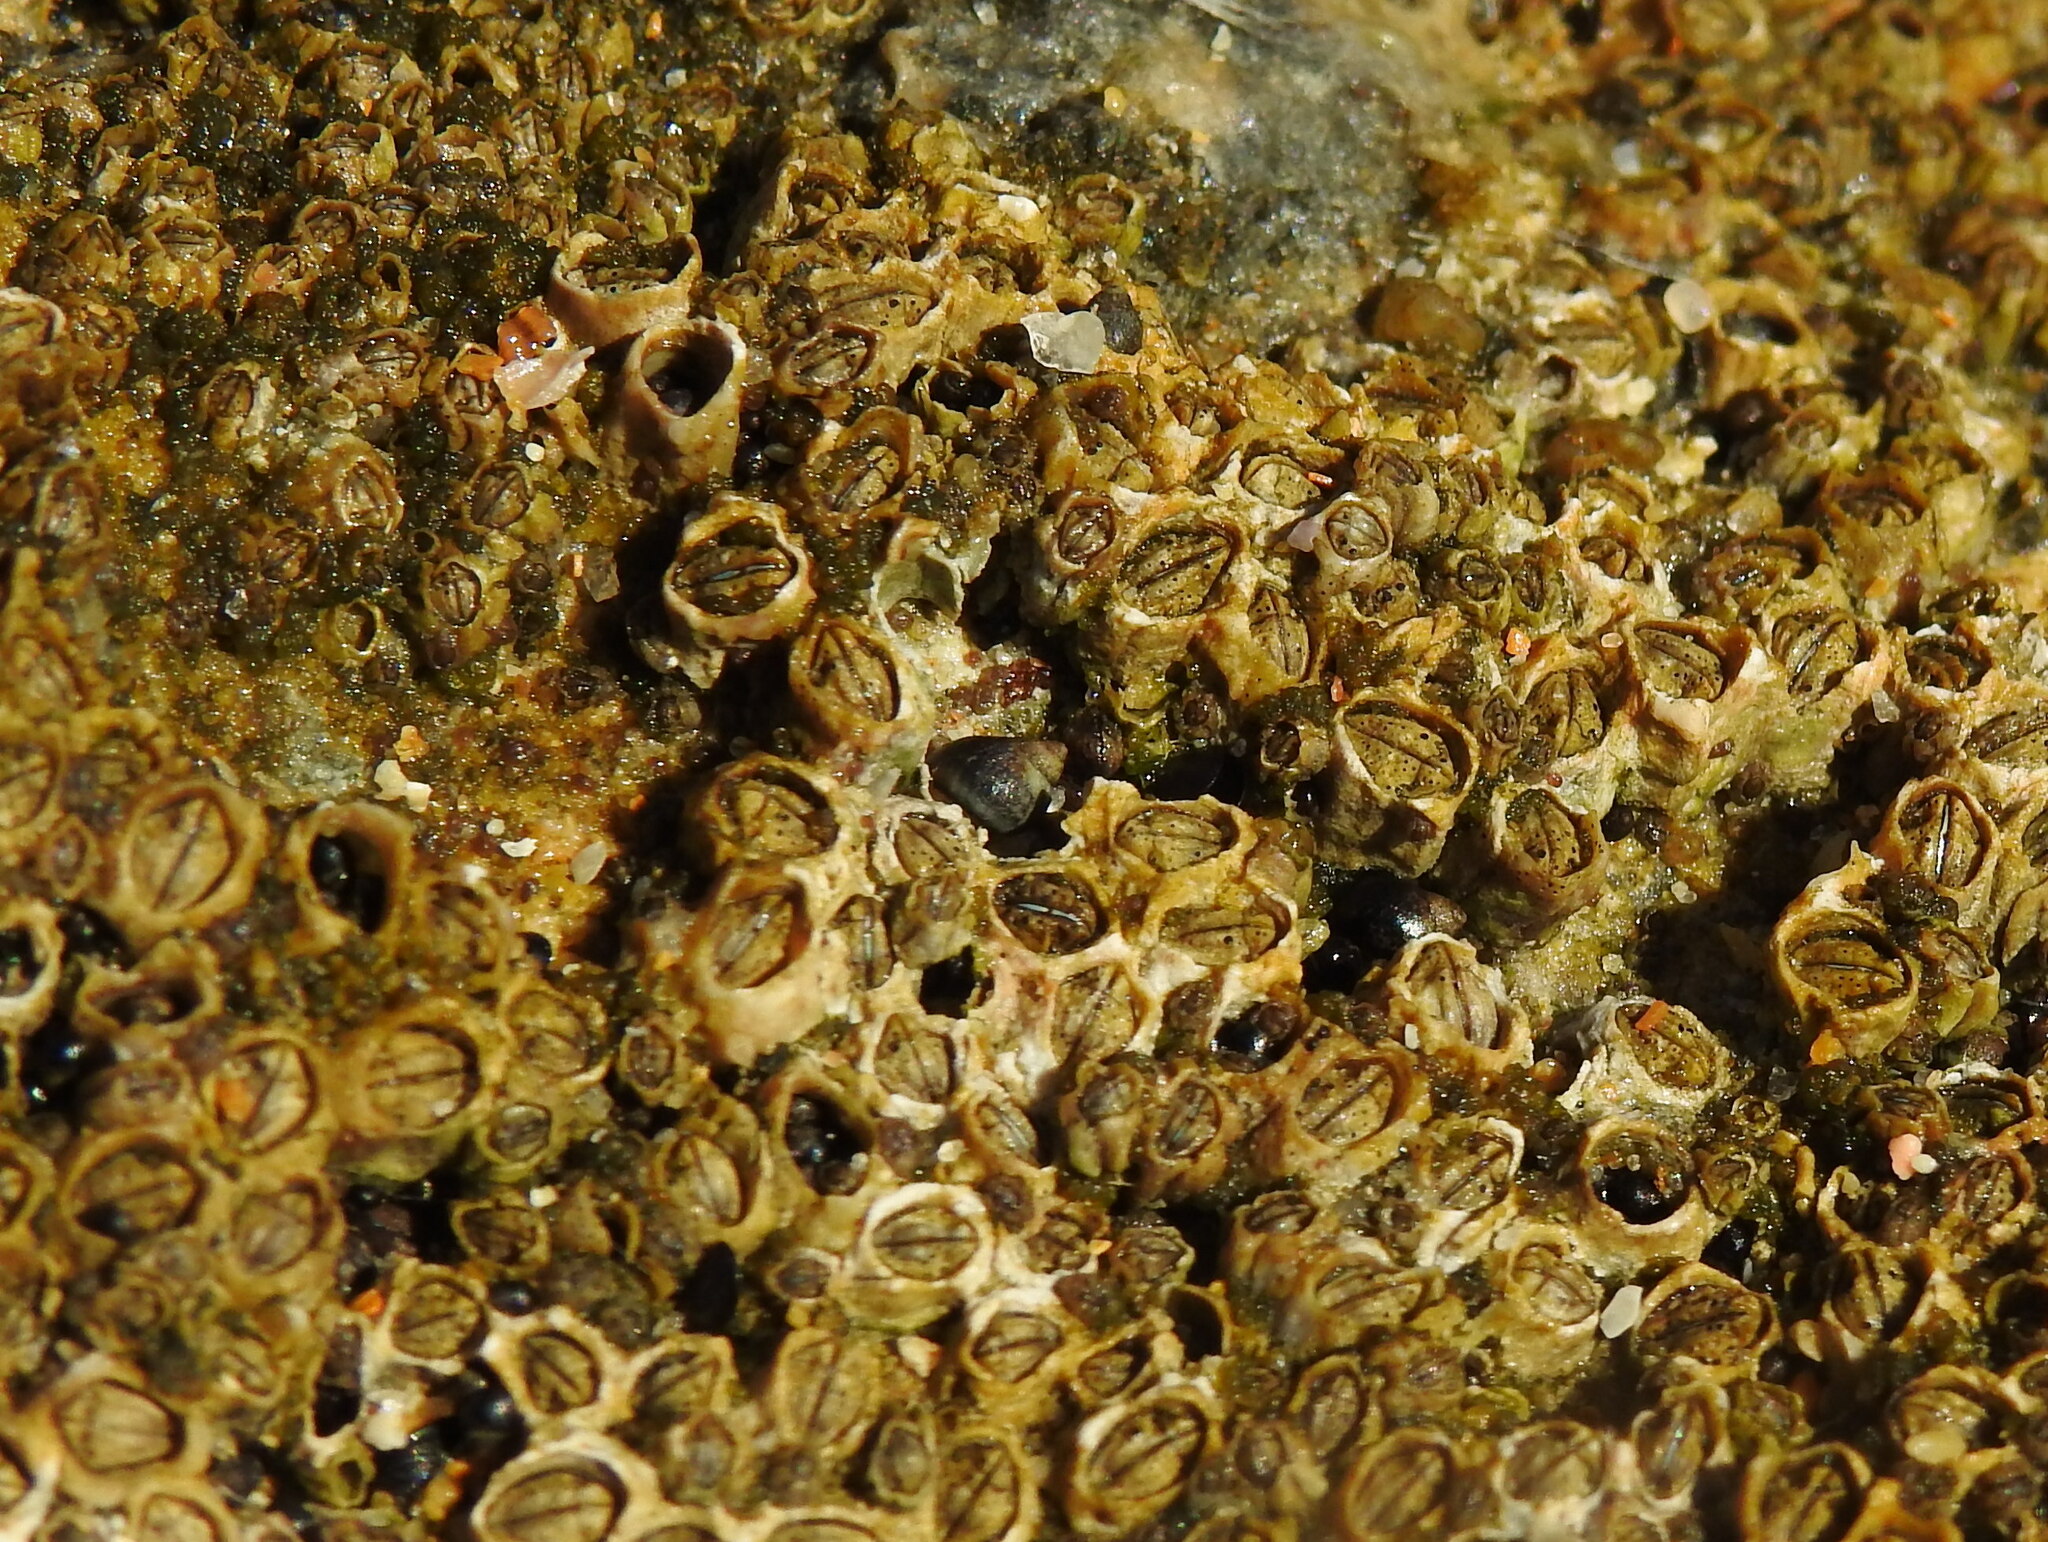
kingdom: Animalia
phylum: Mollusca
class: Gastropoda
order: Littorinimorpha
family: Littorinidae
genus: Melarhaphe
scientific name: Melarhaphe neritoides
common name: Small periwinkle
